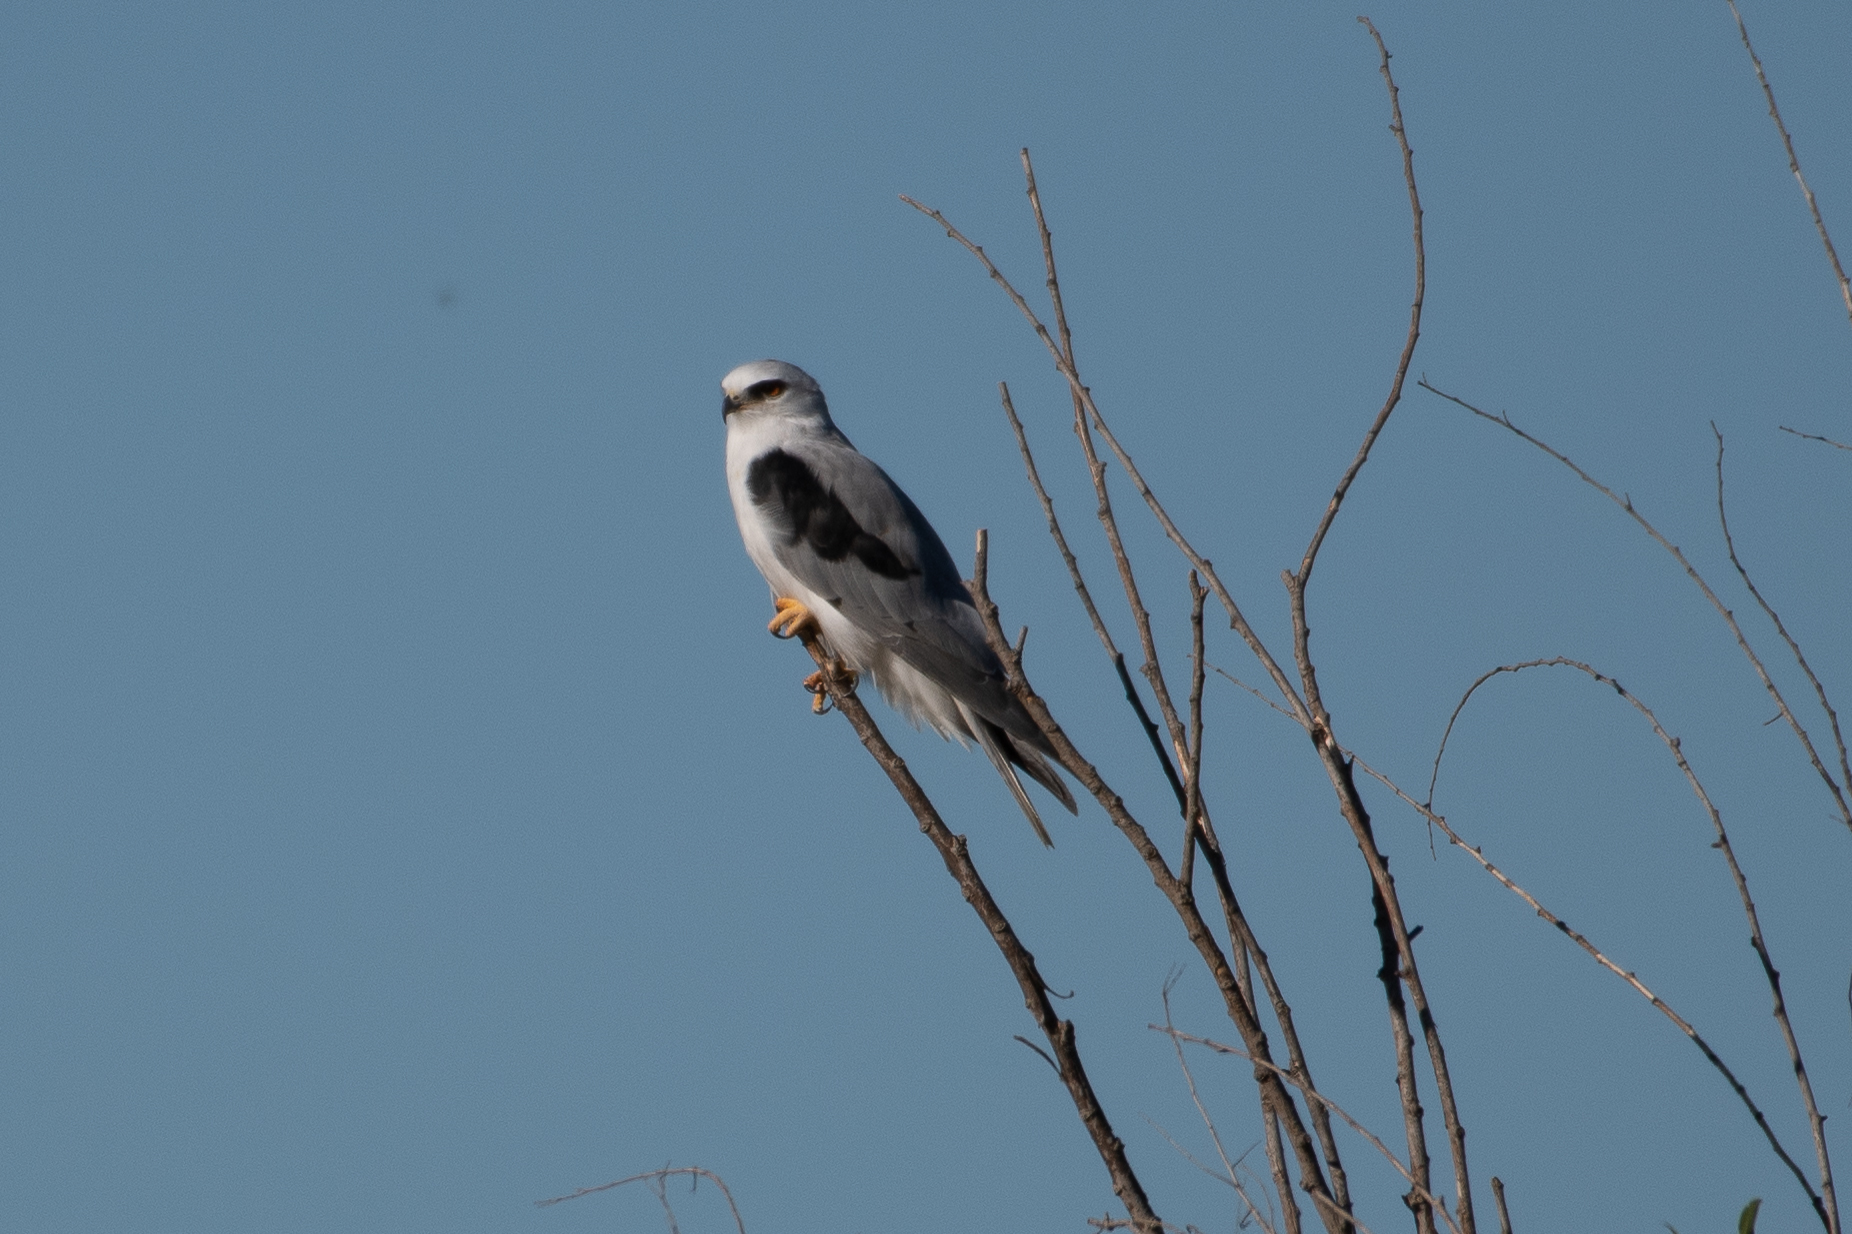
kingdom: Animalia
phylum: Chordata
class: Aves
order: Accipitriformes
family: Accipitridae
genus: Elanus
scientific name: Elanus leucurus
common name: White-tailed kite
